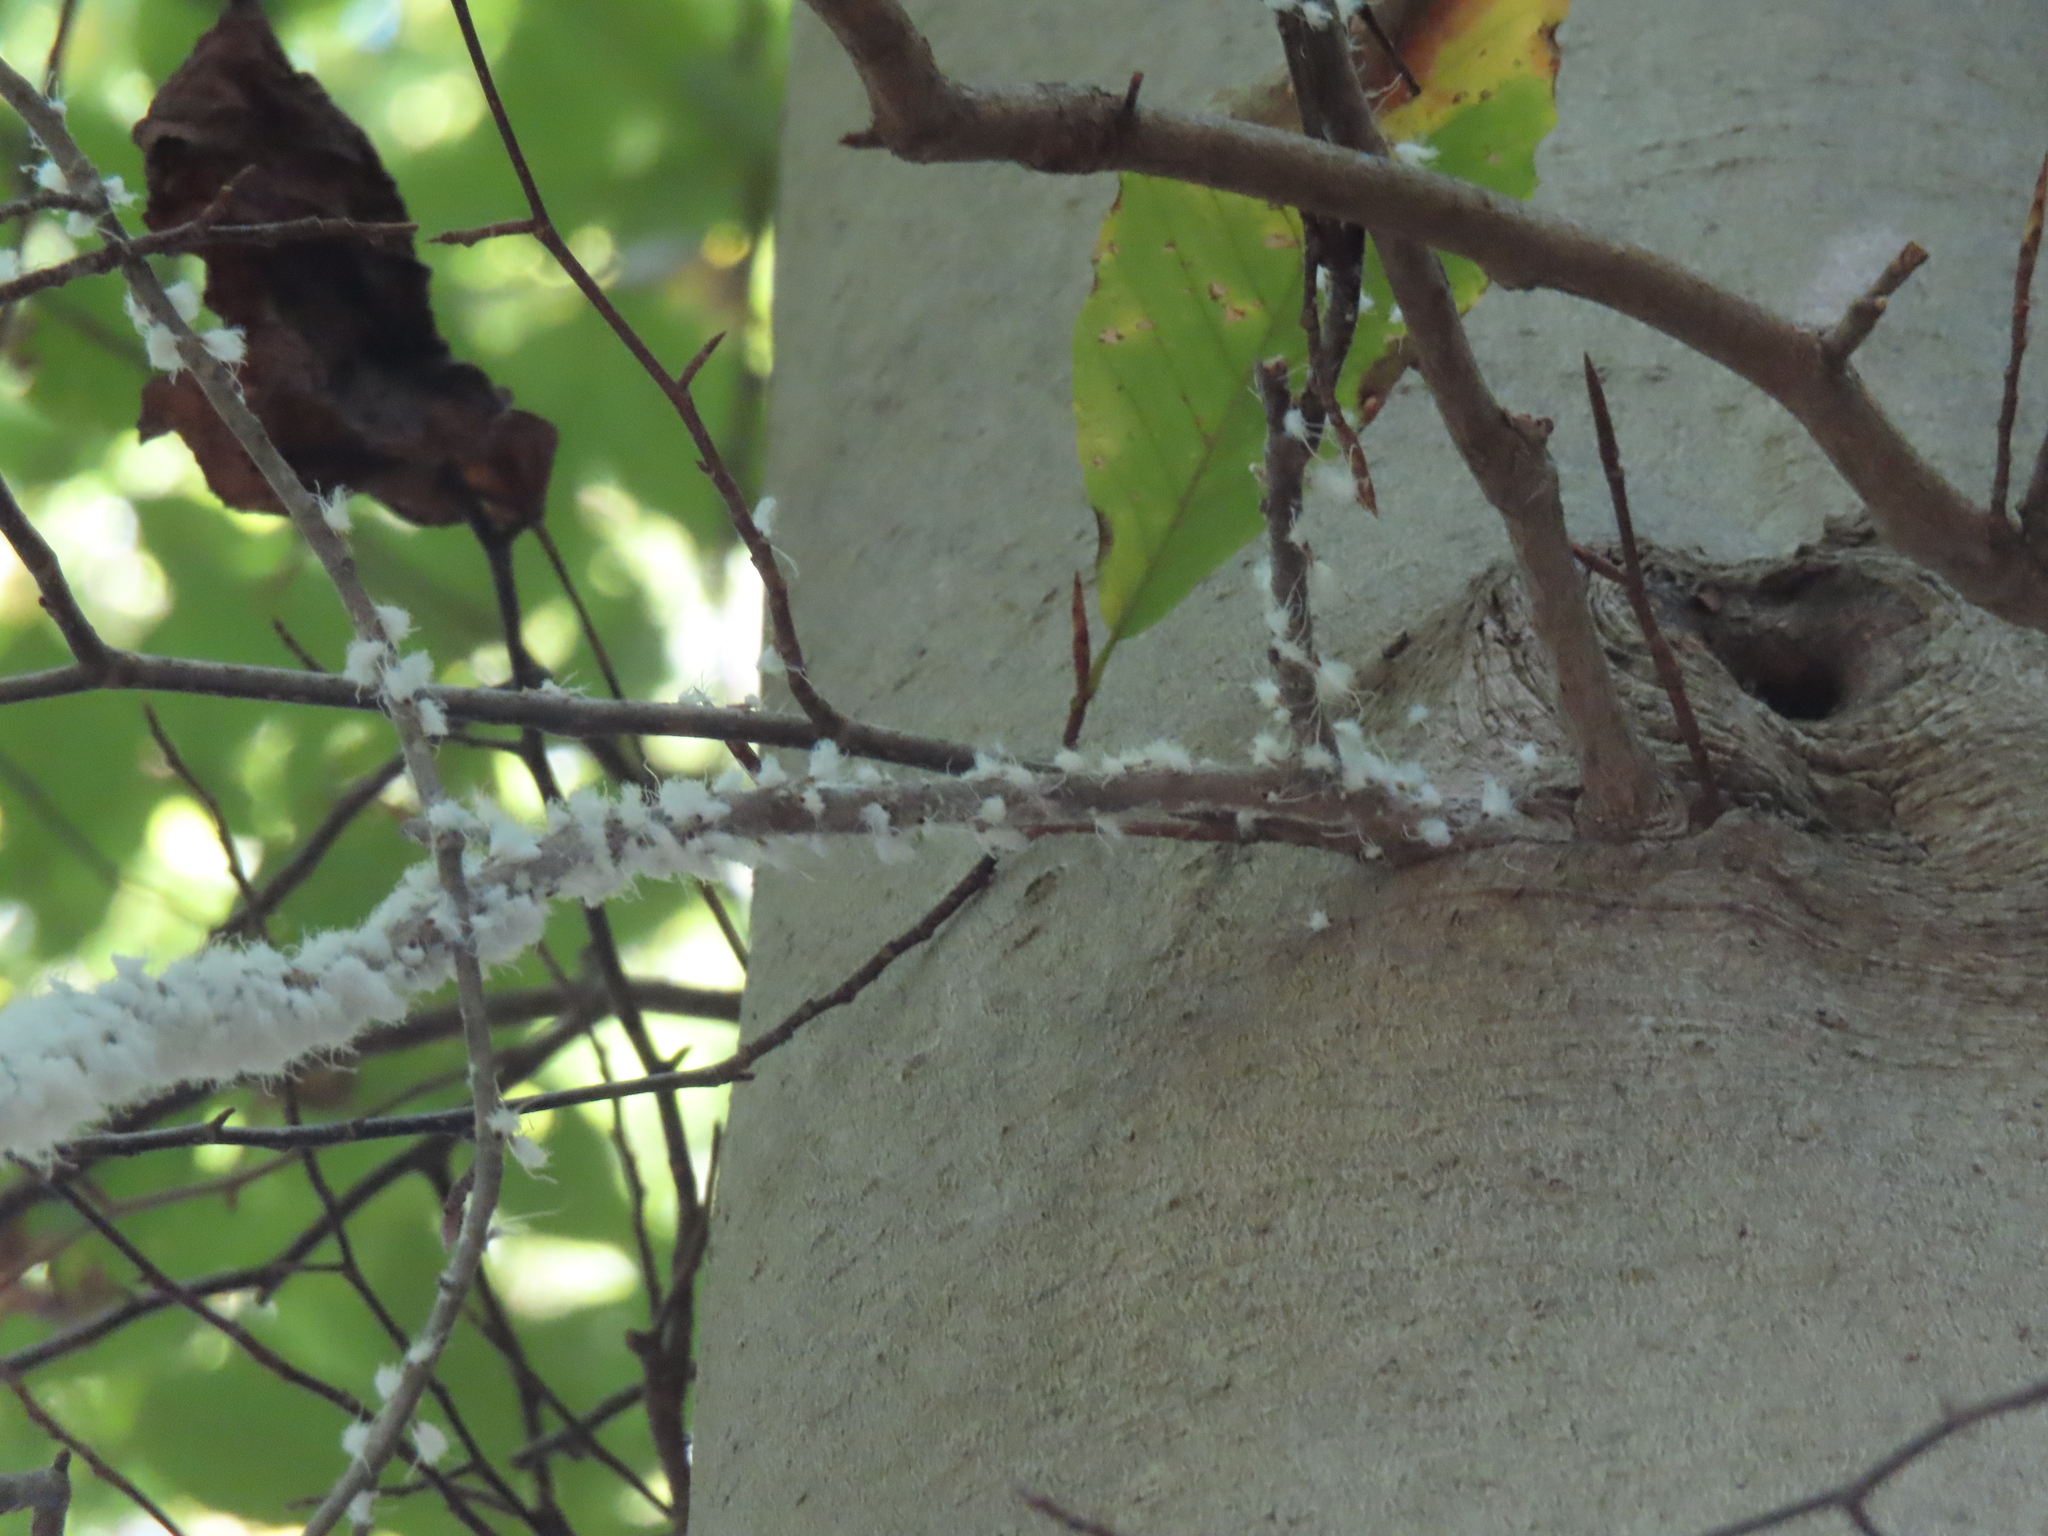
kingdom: Animalia
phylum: Arthropoda
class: Insecta
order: Hemiptera
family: Aphididae
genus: Grylloprociphilus
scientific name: Grylloprociphilus imbricator
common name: Beech blight aphid
